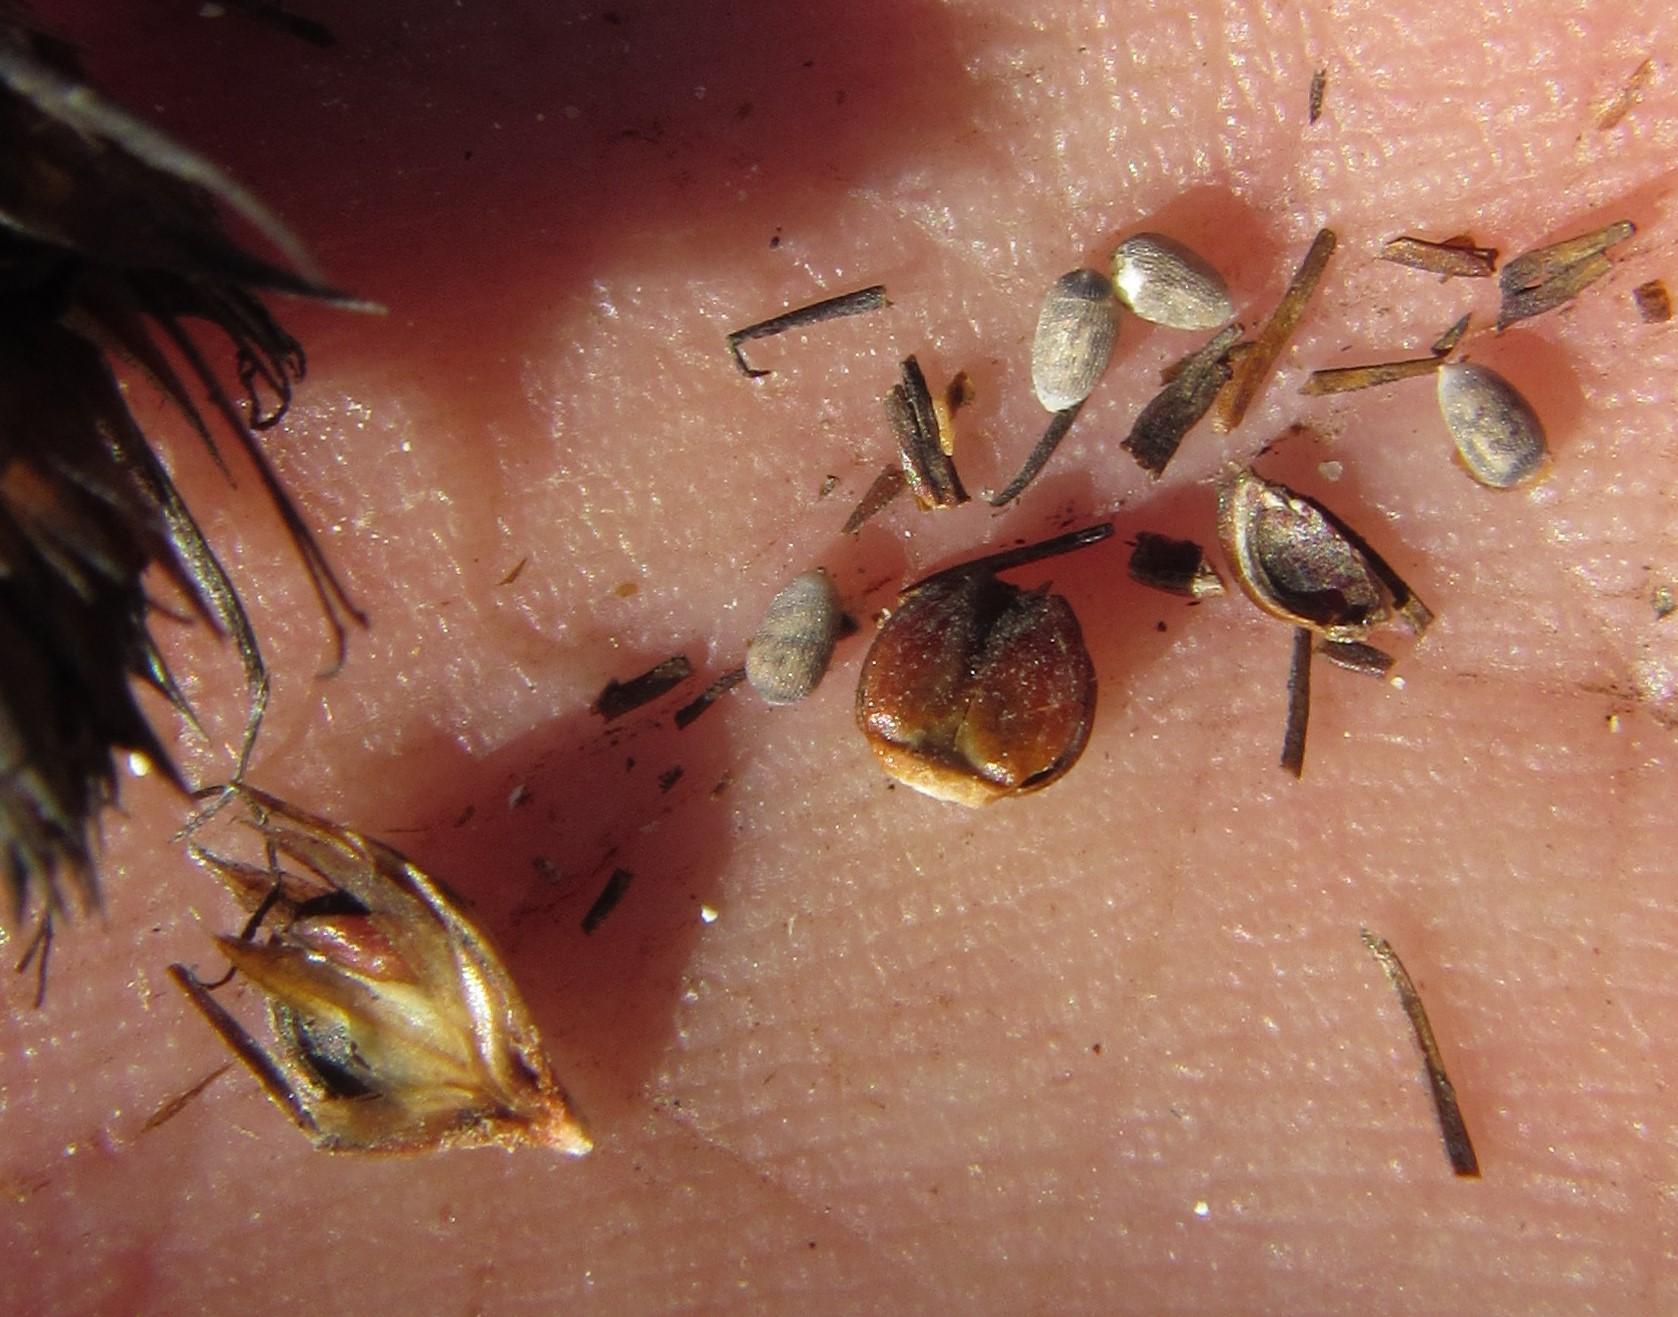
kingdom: Plantae
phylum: Tracheophyta
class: Liliopsida
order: Poales
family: Restionaceae
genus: Restio
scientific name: Restio virgeus
